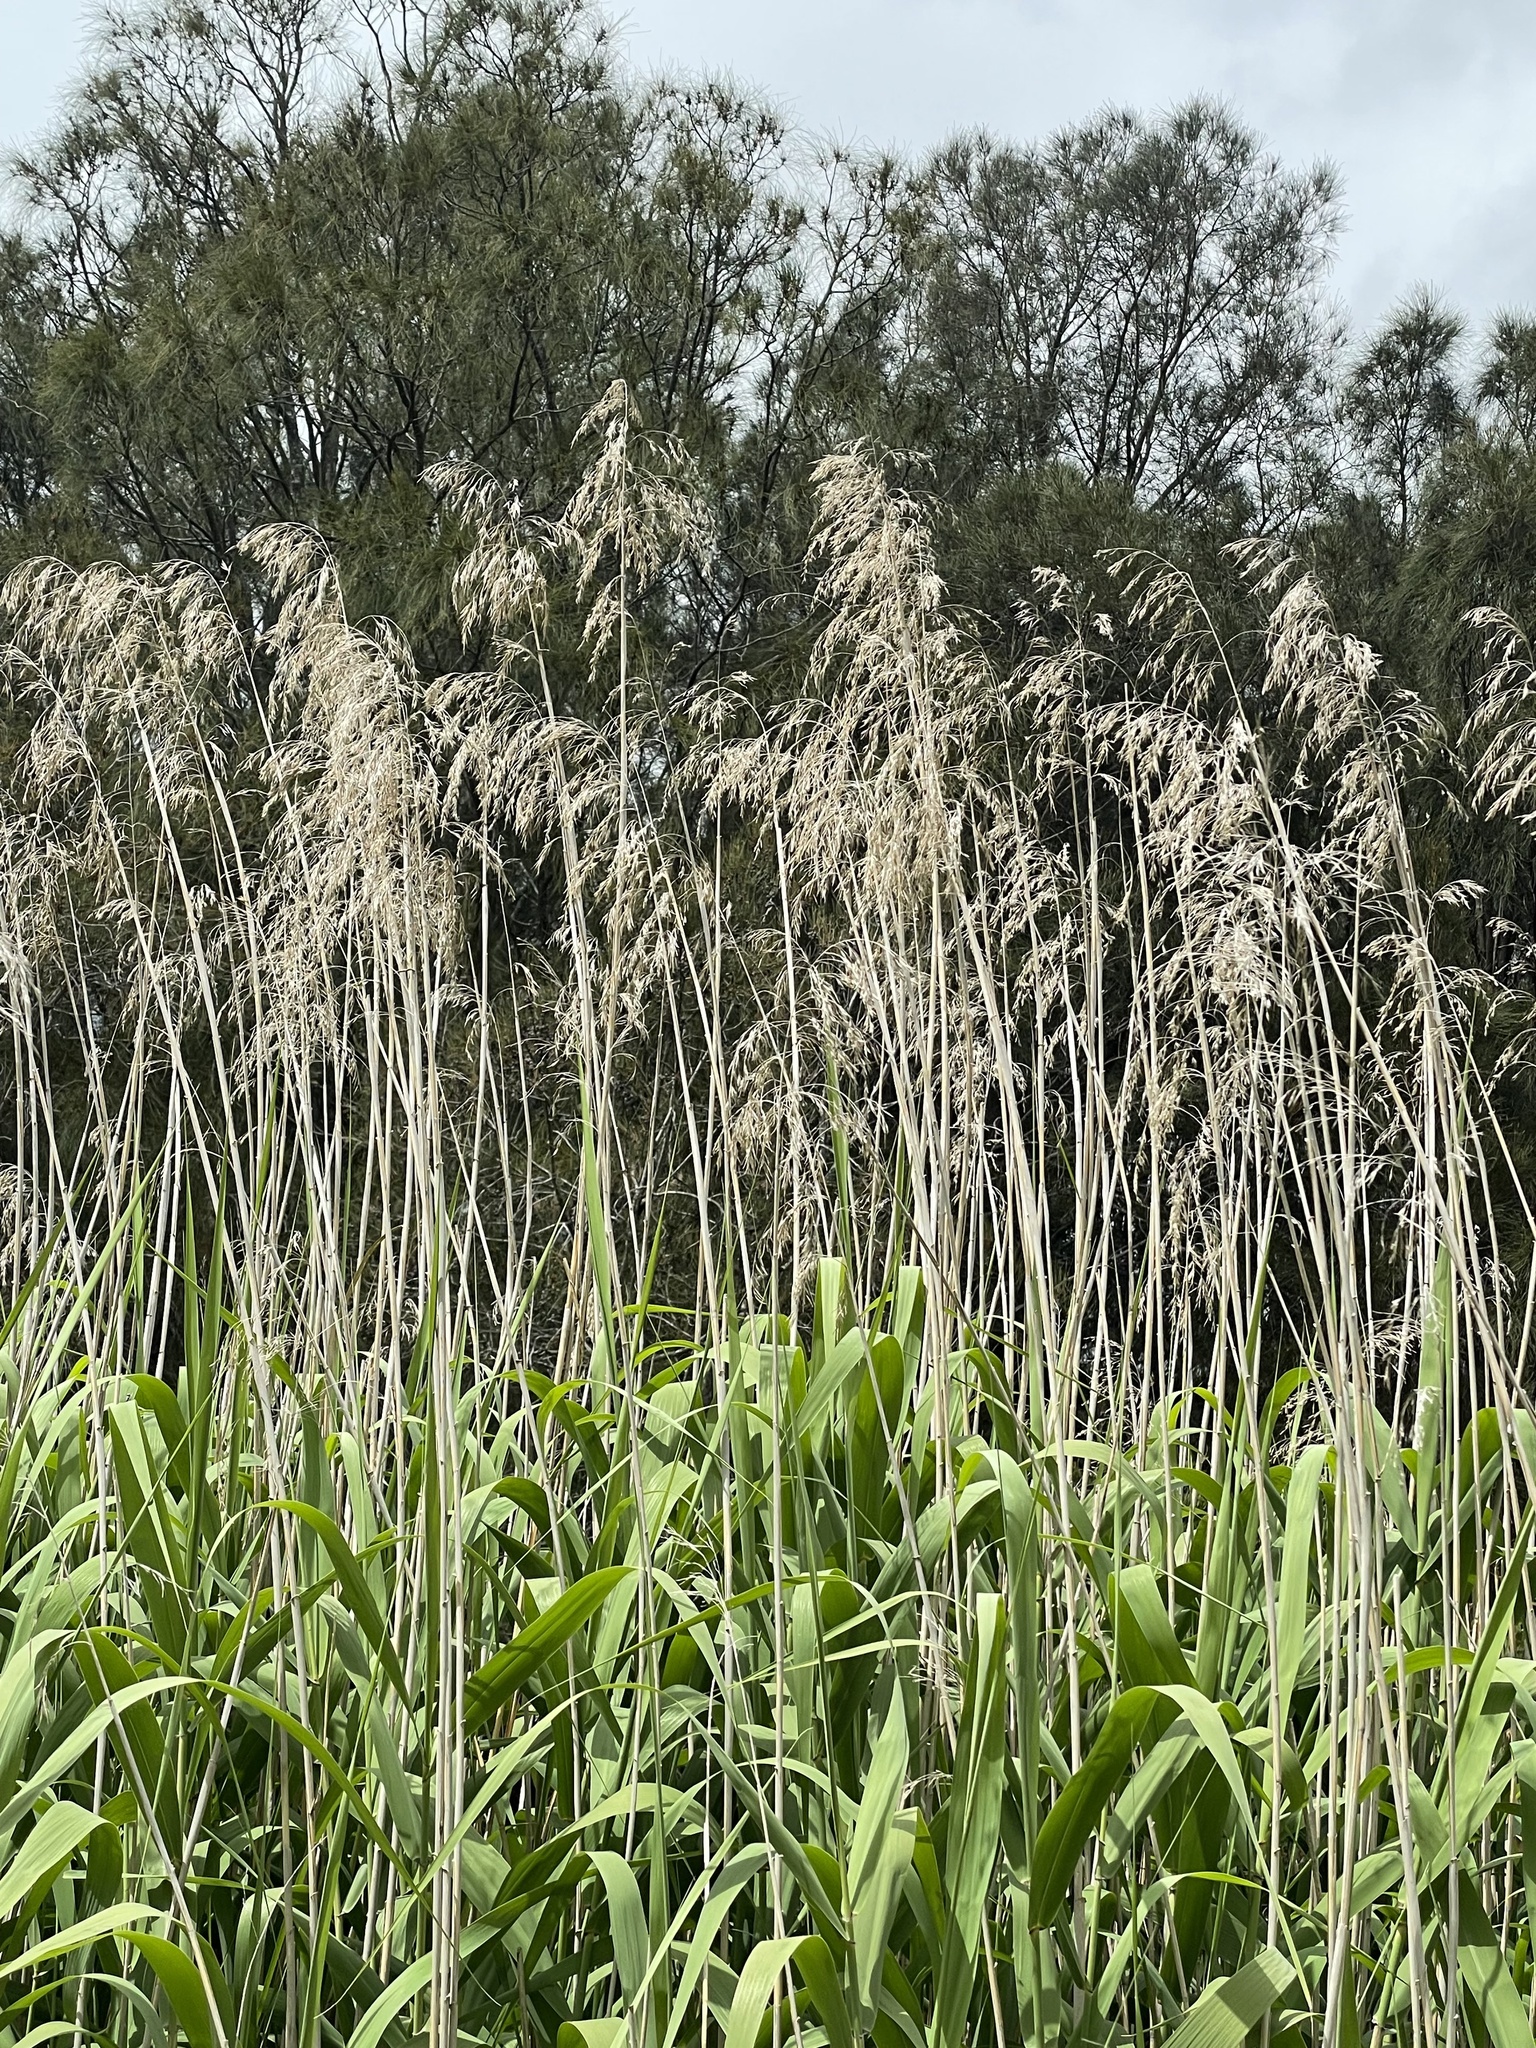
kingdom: Plantae
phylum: Tracheophyta
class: Liliopsida
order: Poales
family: Poaceae
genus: Phragmites
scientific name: Phragmites australis
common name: Common reed
